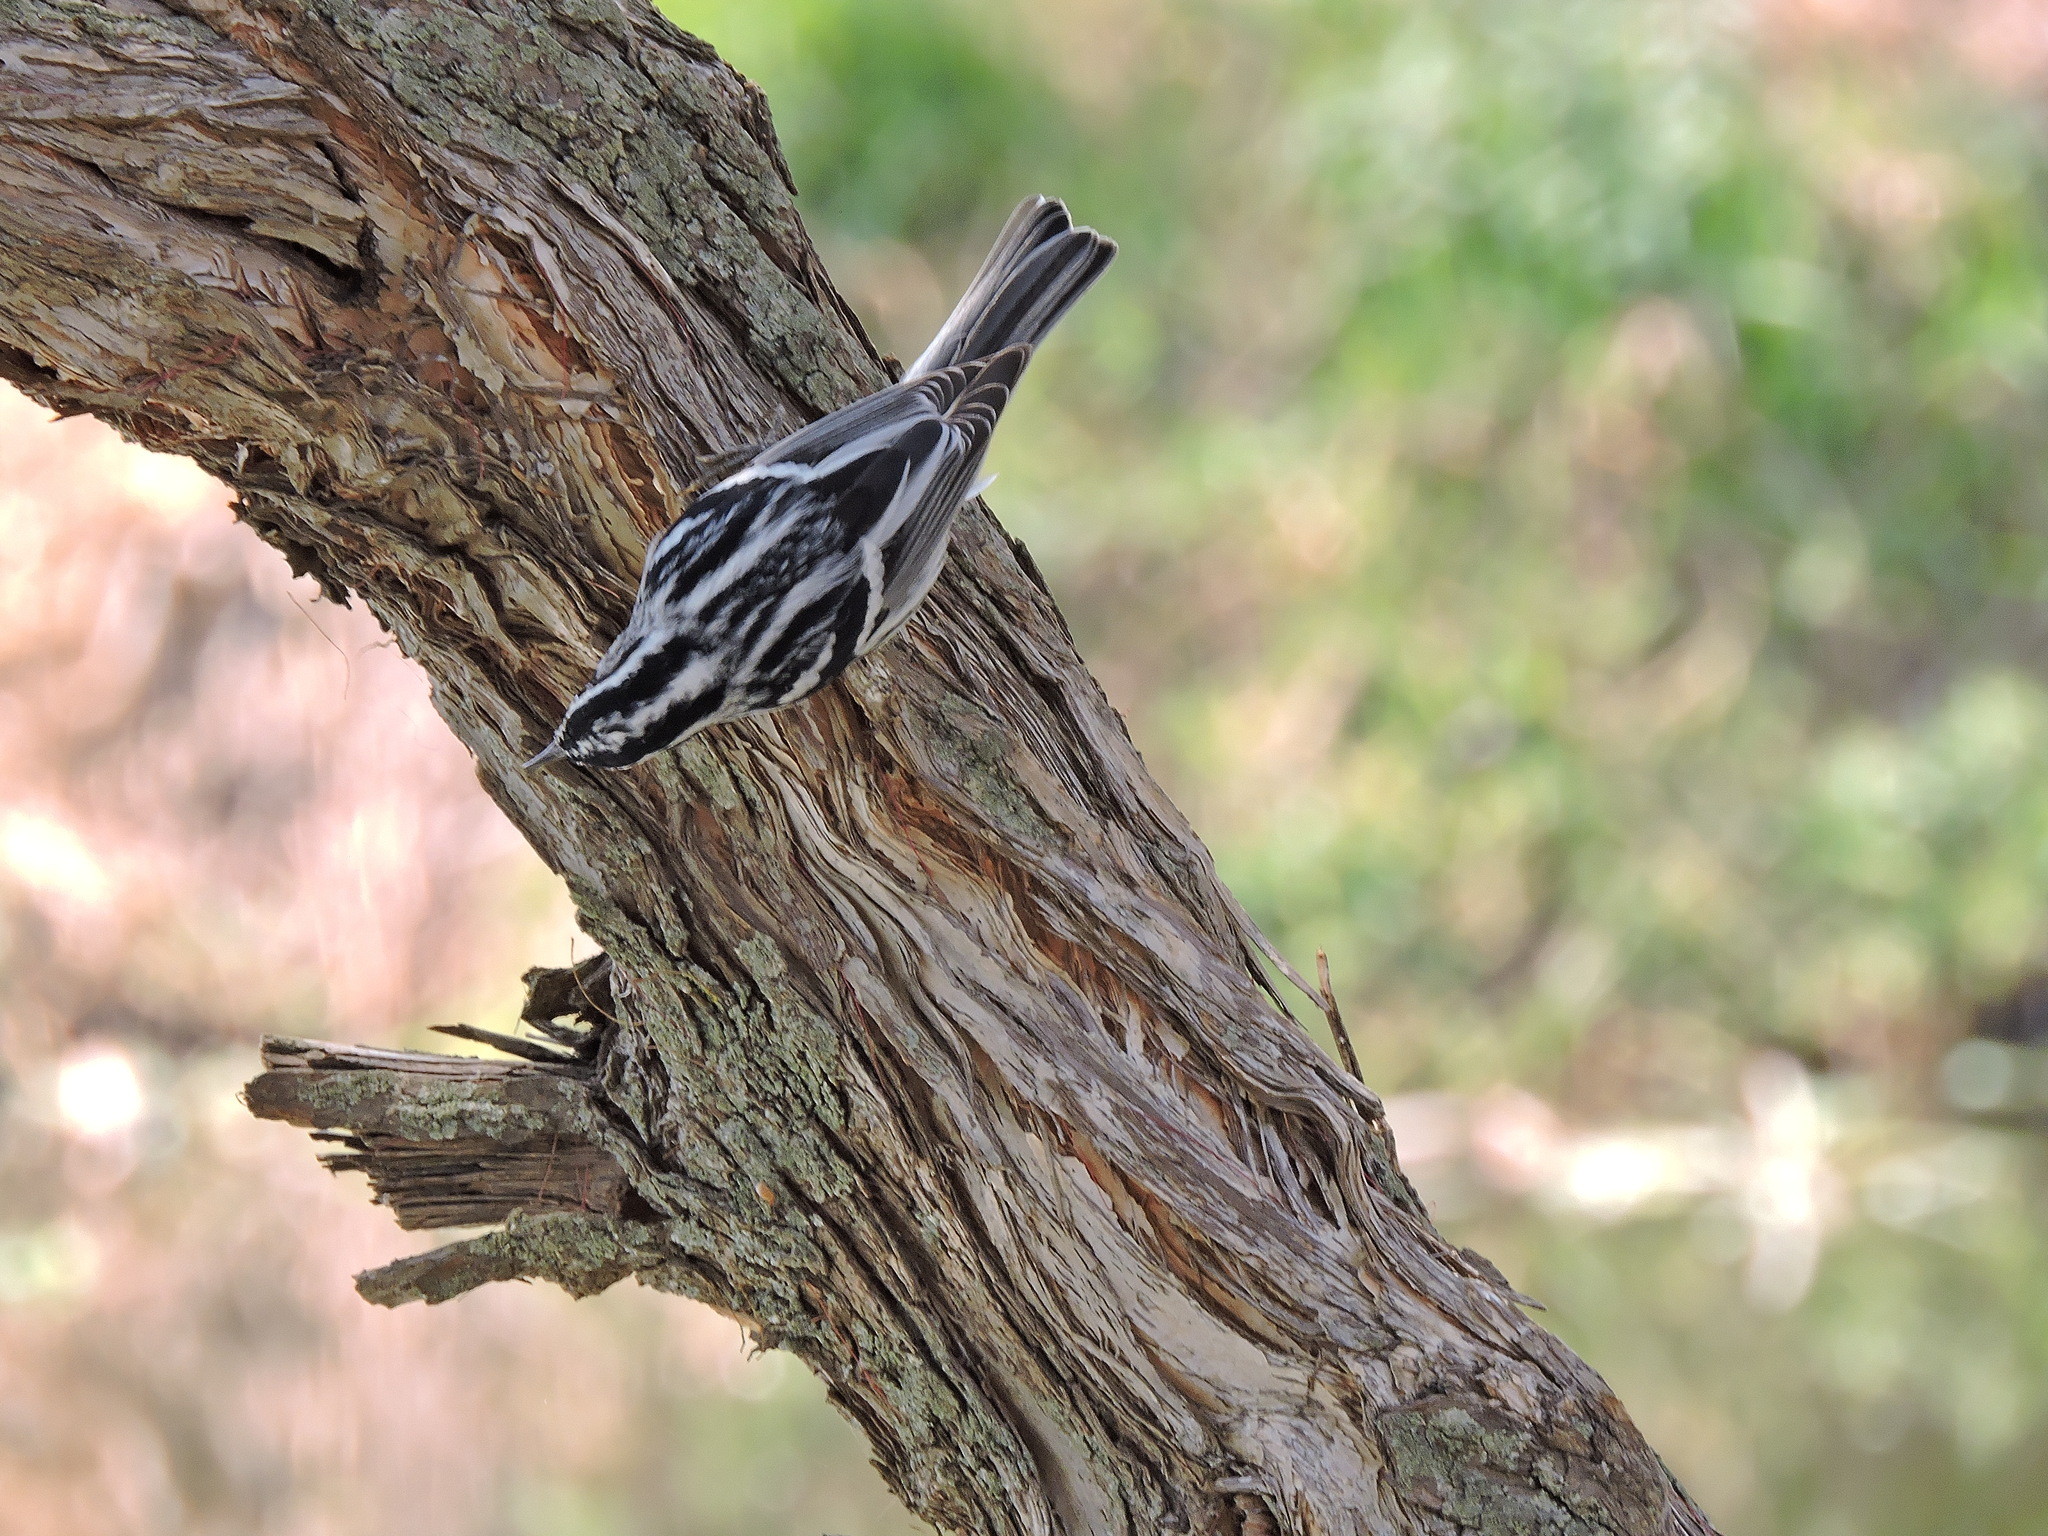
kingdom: Animalia
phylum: Chordata
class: Aves
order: Passeriformes
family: Parulidae
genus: Mniotilta
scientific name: Mniotilta varia
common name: Black-and-white warbler
